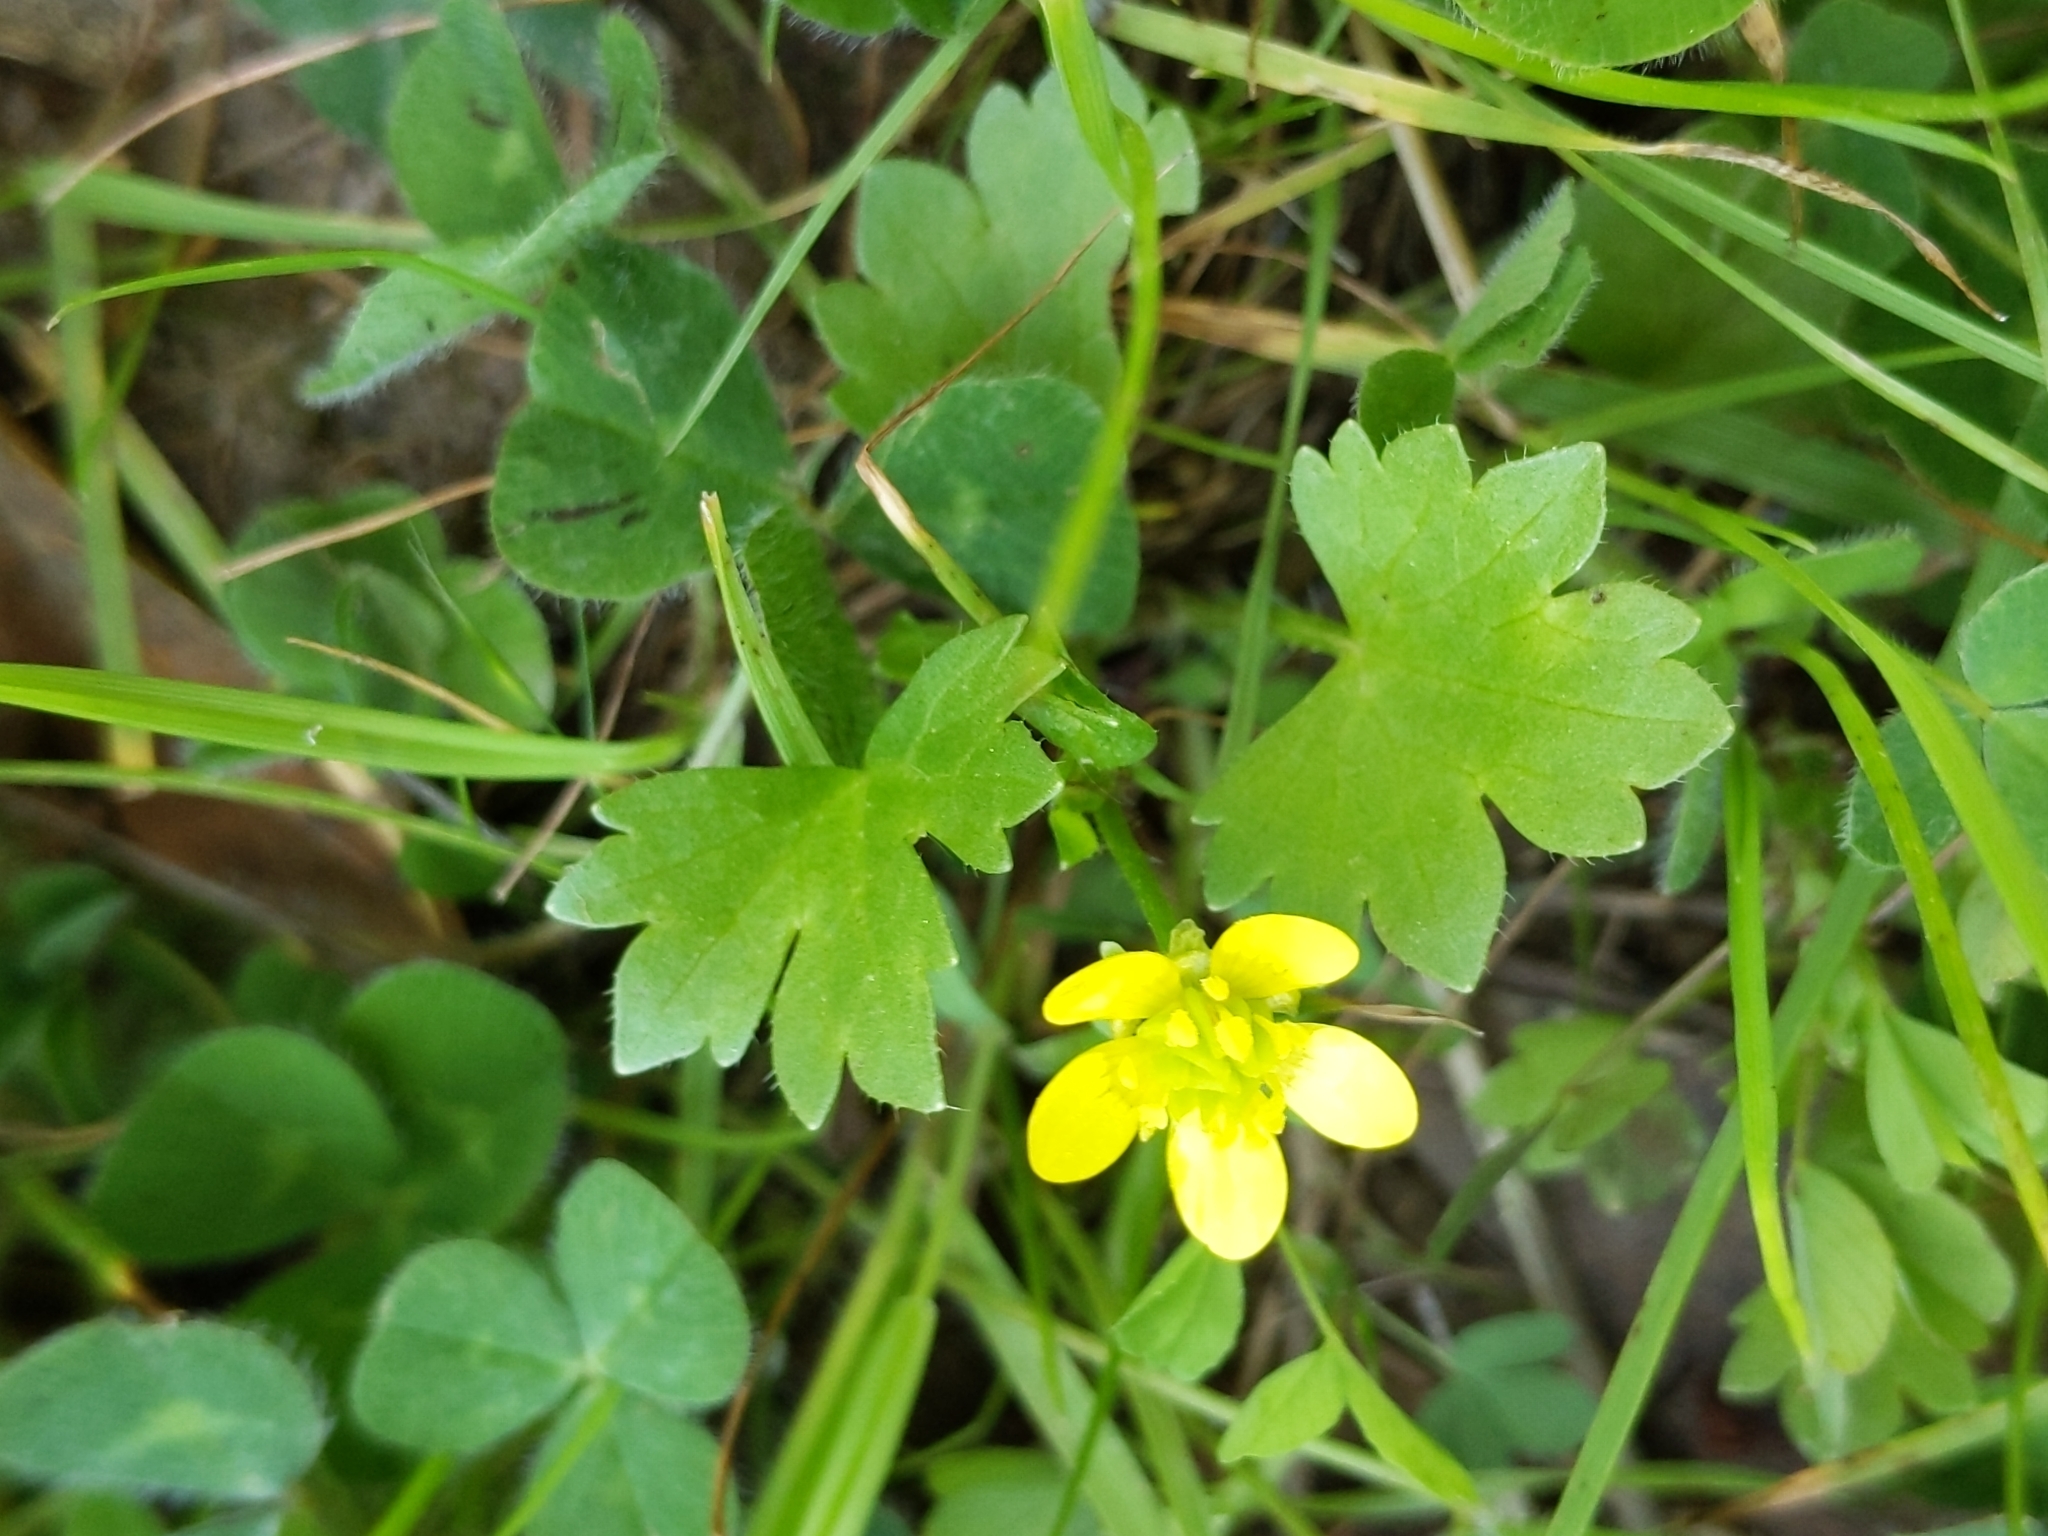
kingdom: Plantae
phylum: Tracheophyta
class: Magnoliopsida
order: Ranunculales
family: Ranunculaceae
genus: Ranunculus
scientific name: Ranunculus muricatus
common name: Rough-fruited buttercup
